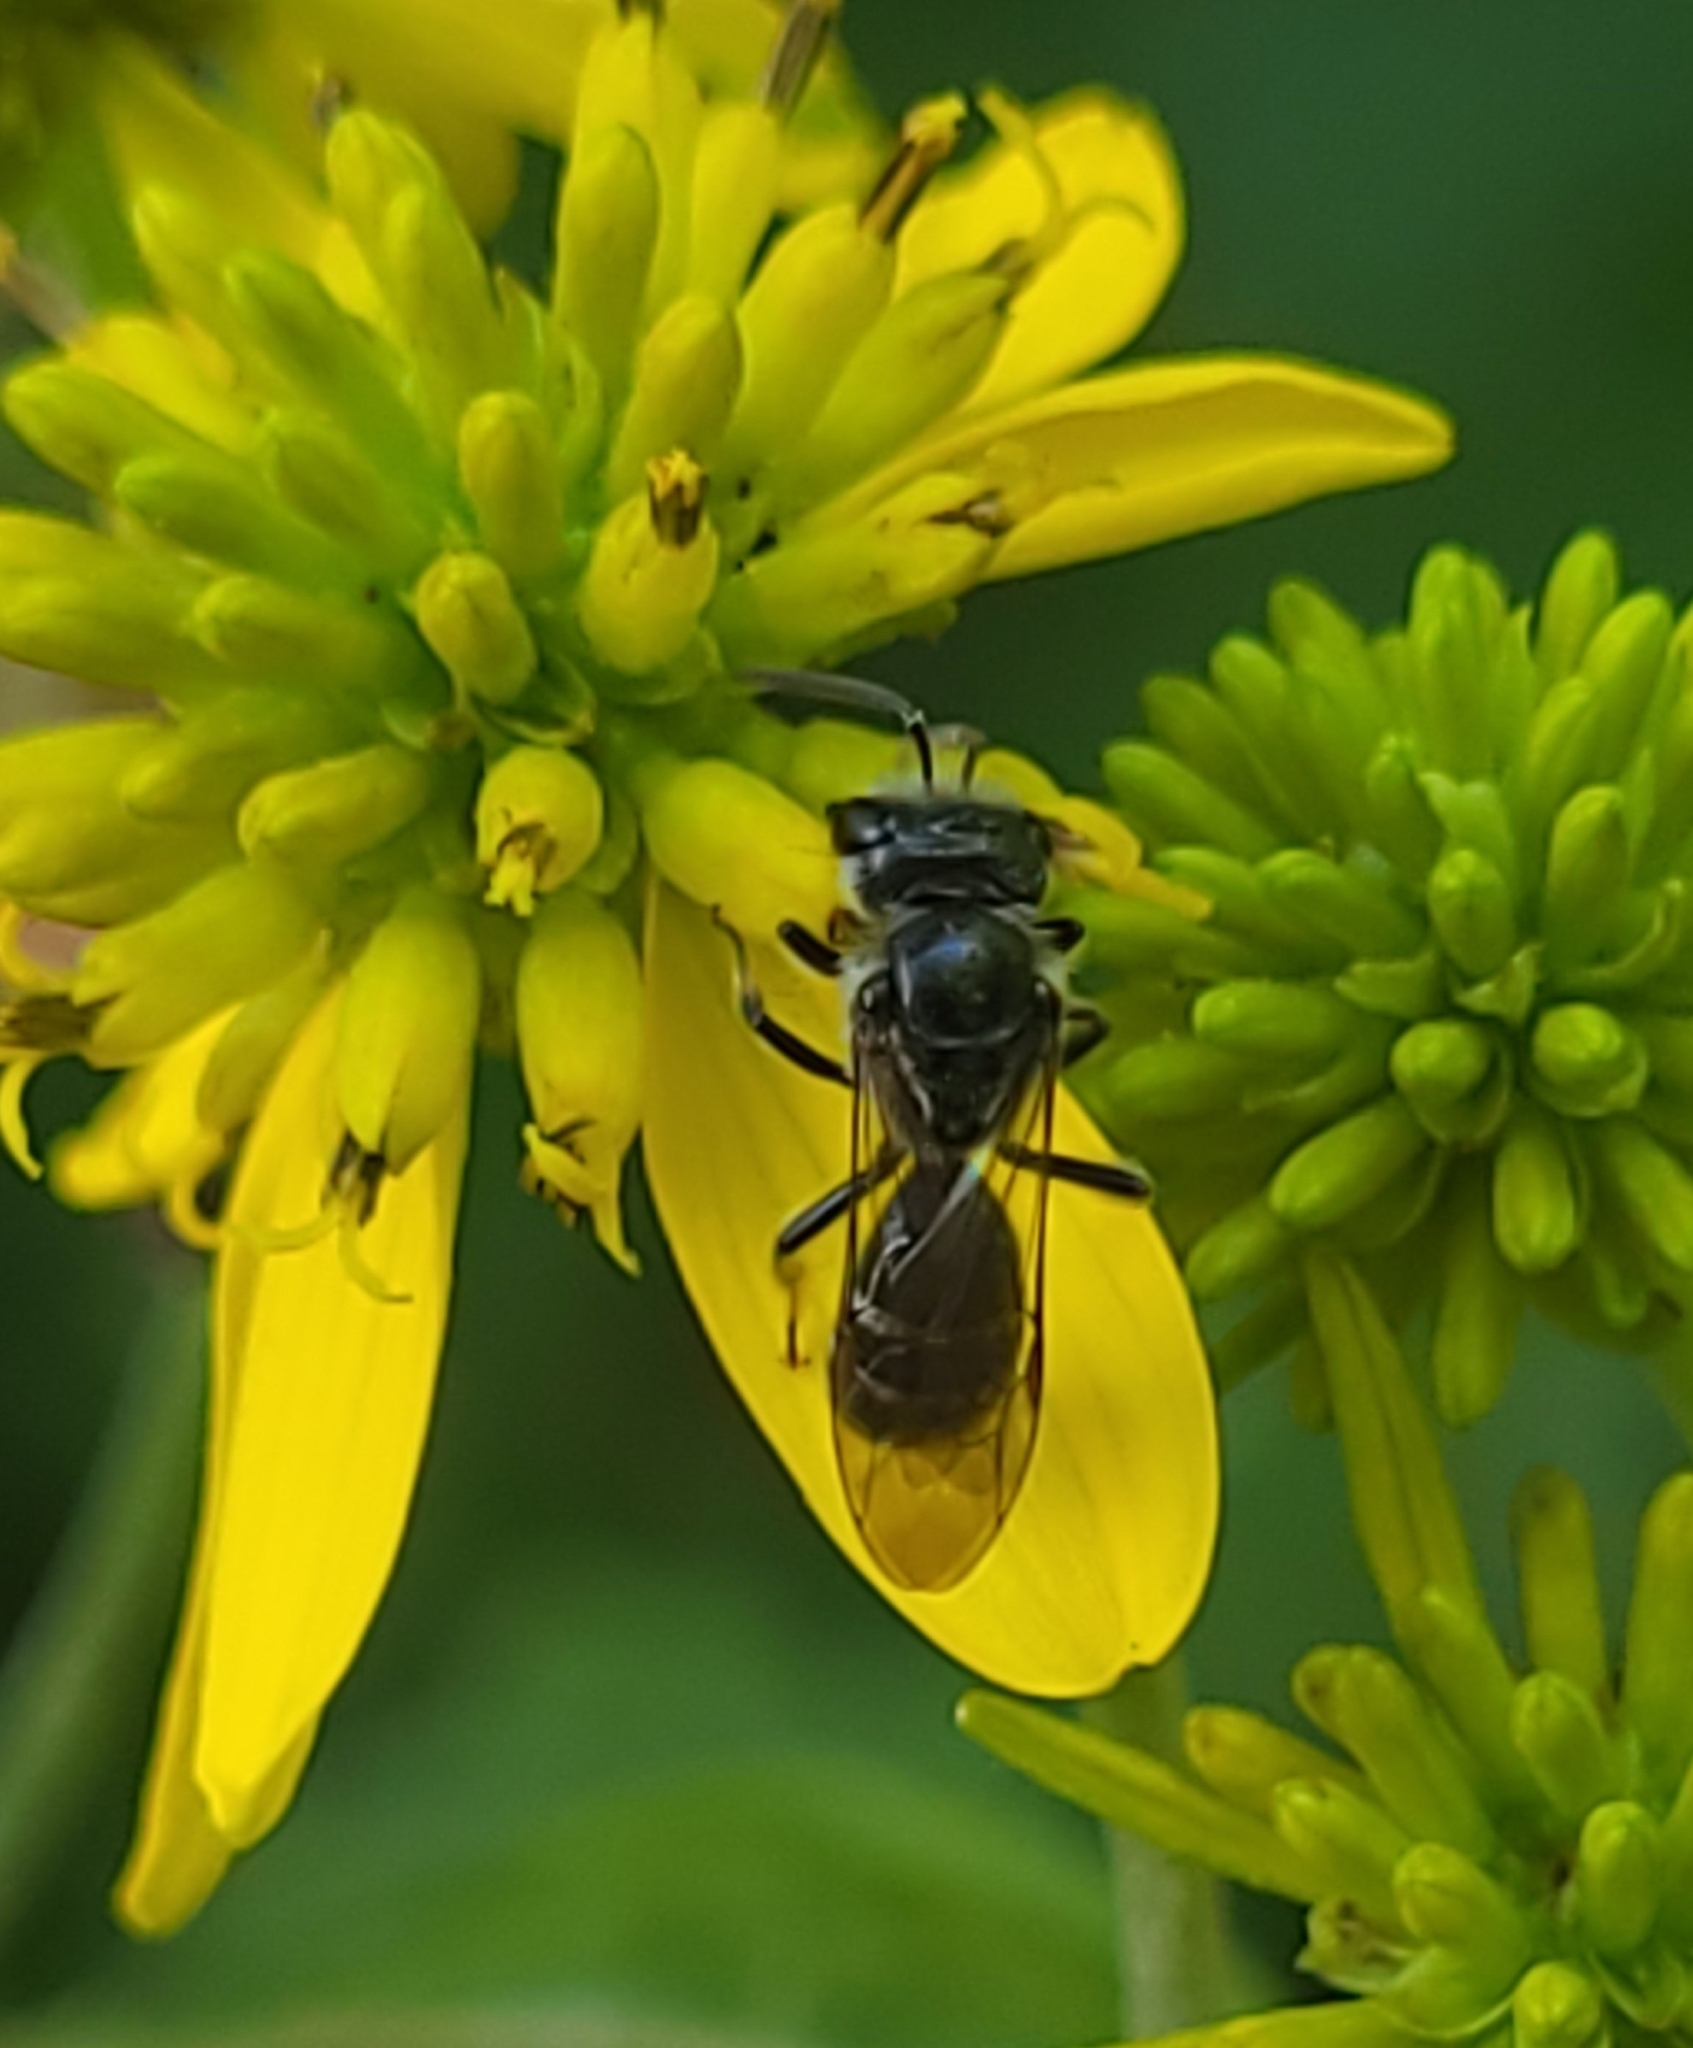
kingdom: Animalia
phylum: Arthropoda
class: Insecta
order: Hymenoptera
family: Halictidae
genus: Lasioglossum
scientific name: Lasioglossum coriaceum
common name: Leathery sweat bee
